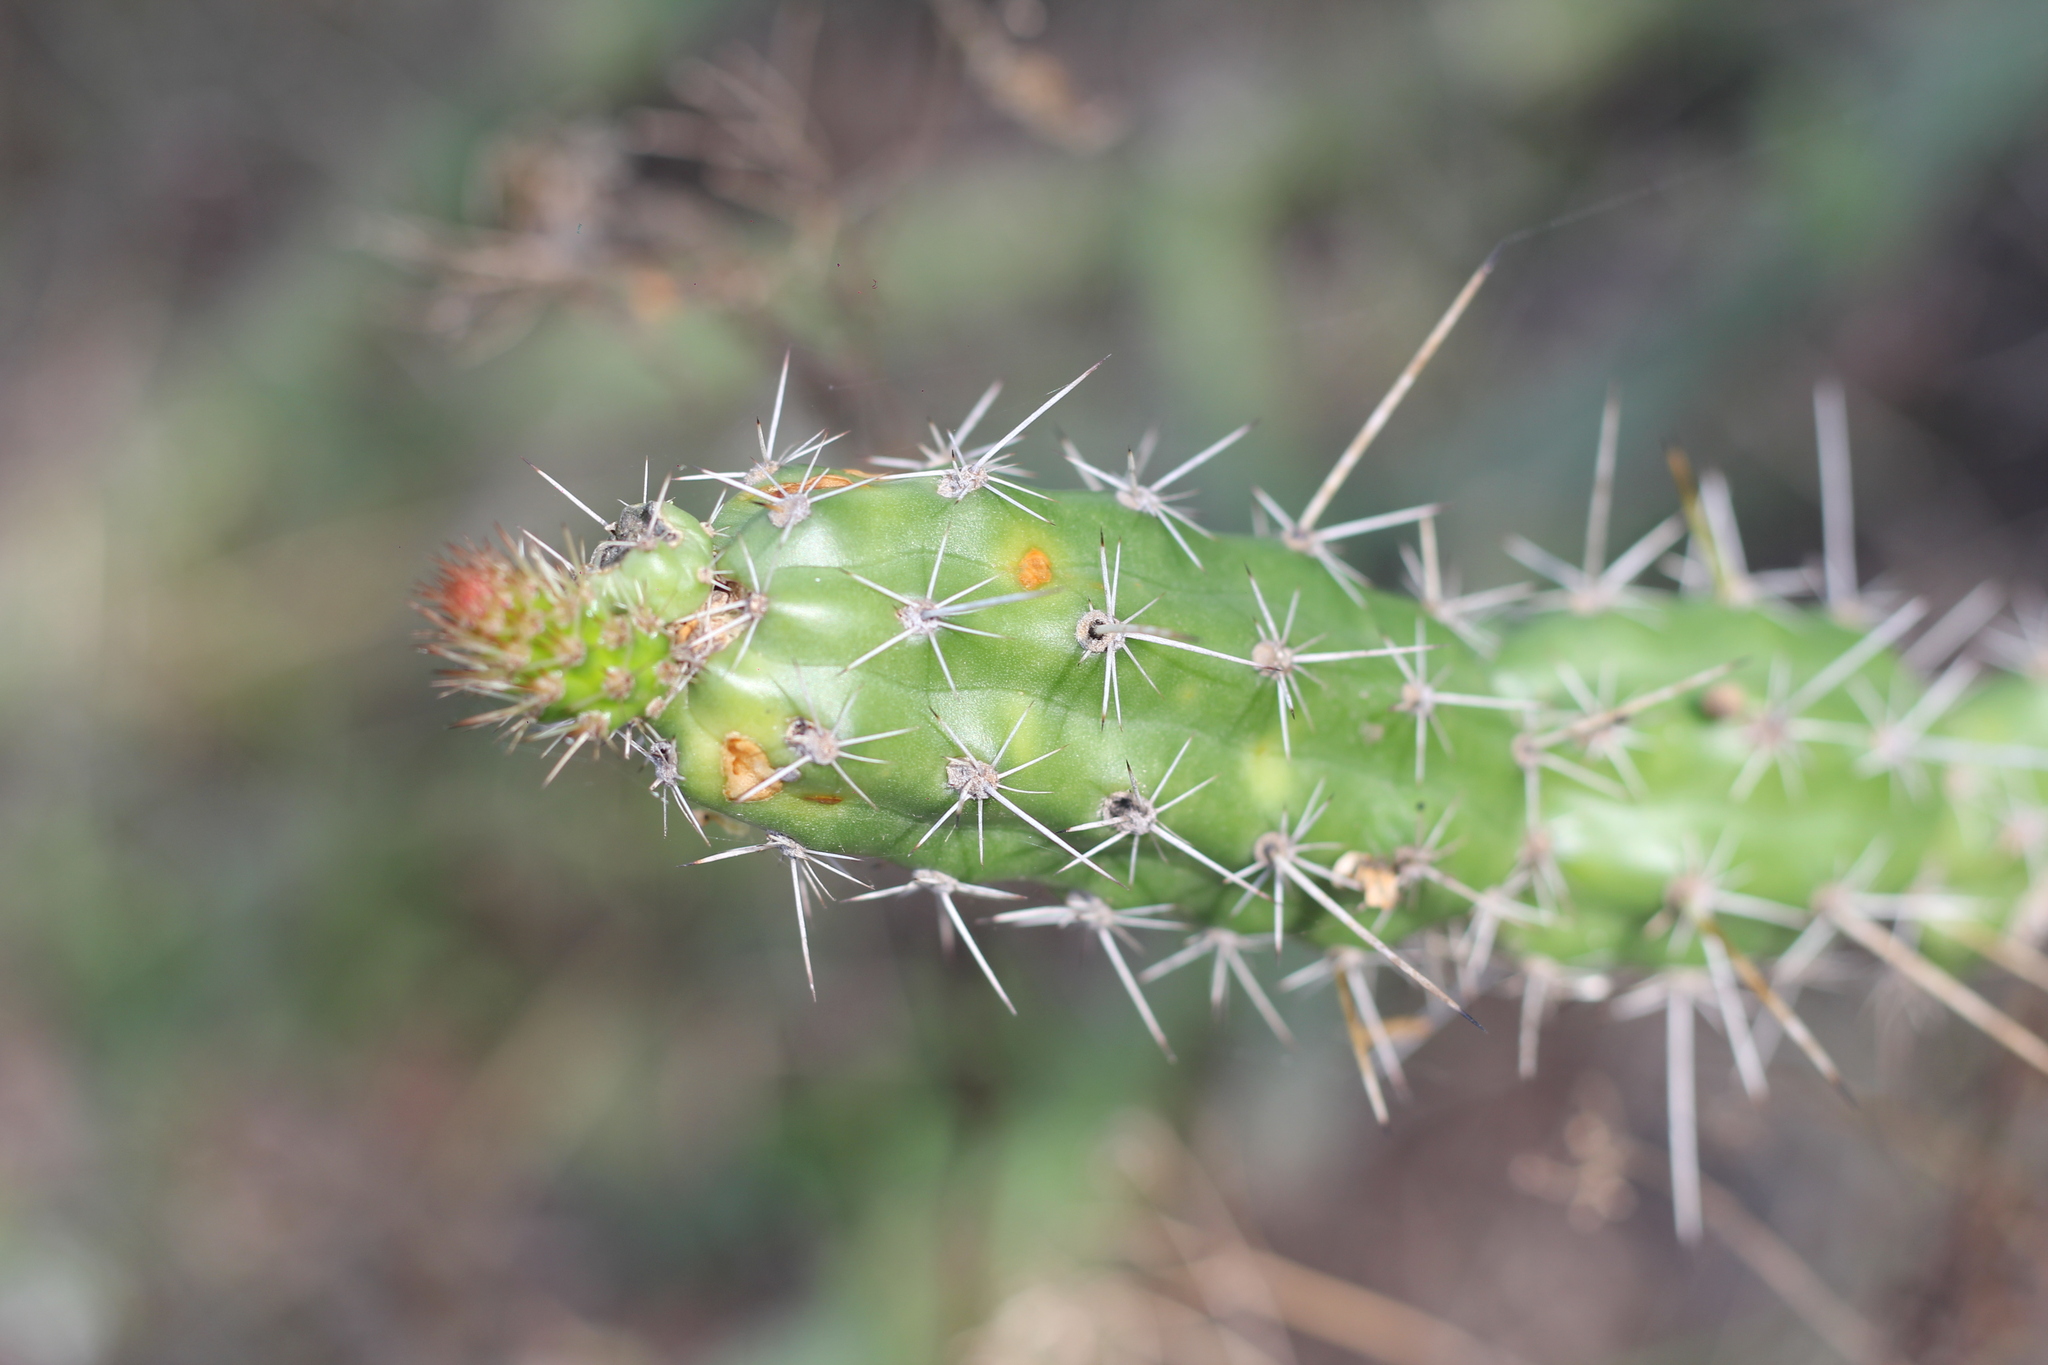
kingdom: Plantae
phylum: Tracheophyta
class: Magnoliopsida
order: Caryophyllales
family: Cactaceae
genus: Praecereus
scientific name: Praecereus euchlorus
